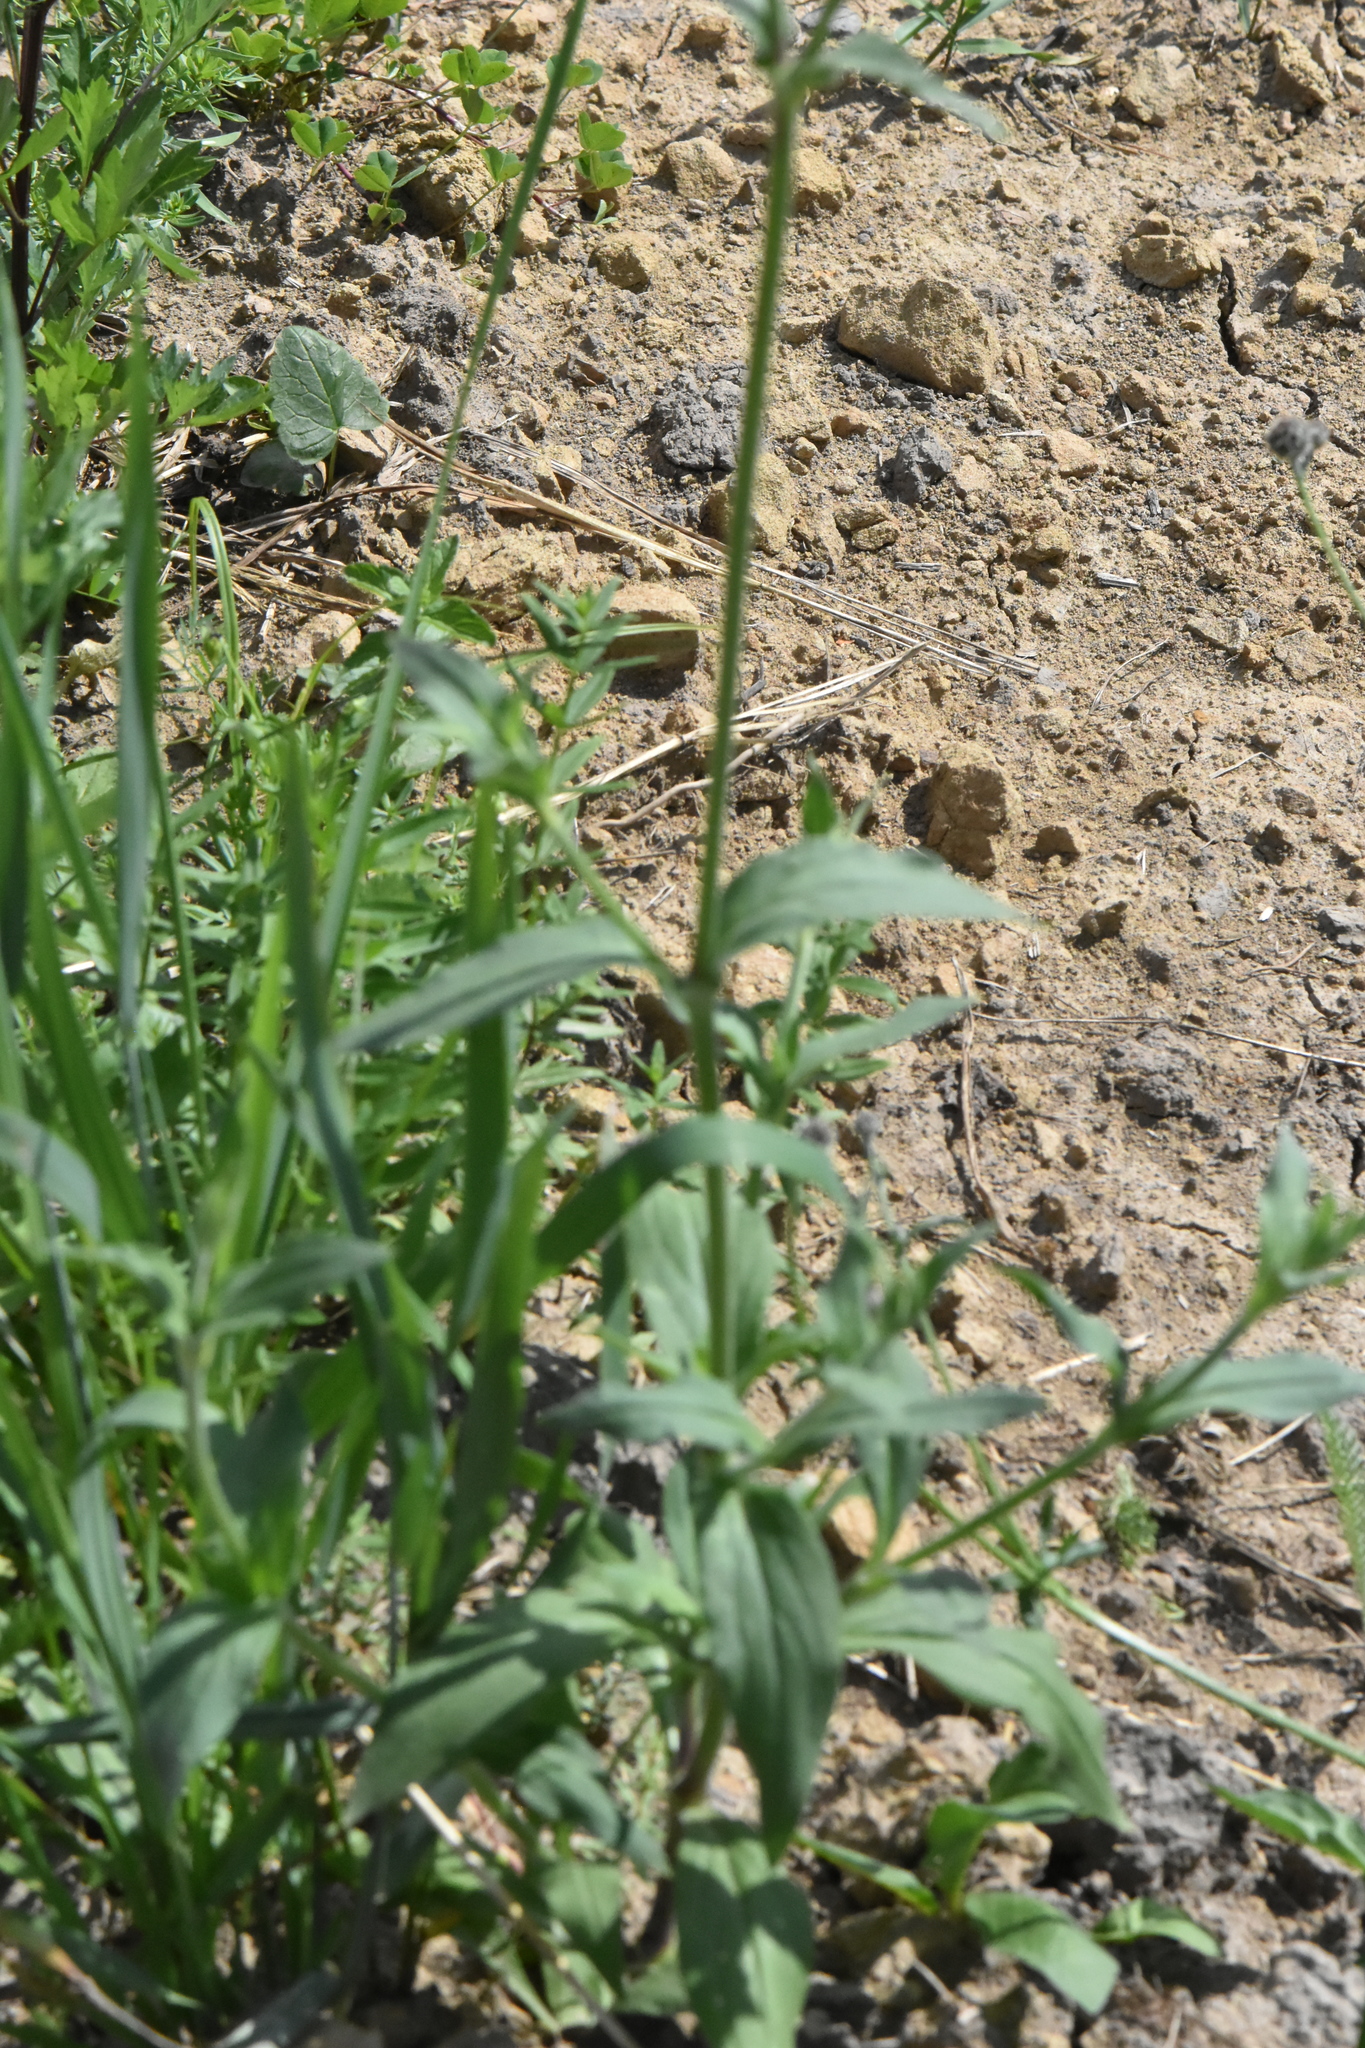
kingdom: Plantae
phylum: Tracheophyta
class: Magnoliopsida
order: Caryophyllales
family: Caryophyllaceae
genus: Silene
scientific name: Silene latifolia
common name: White campion
